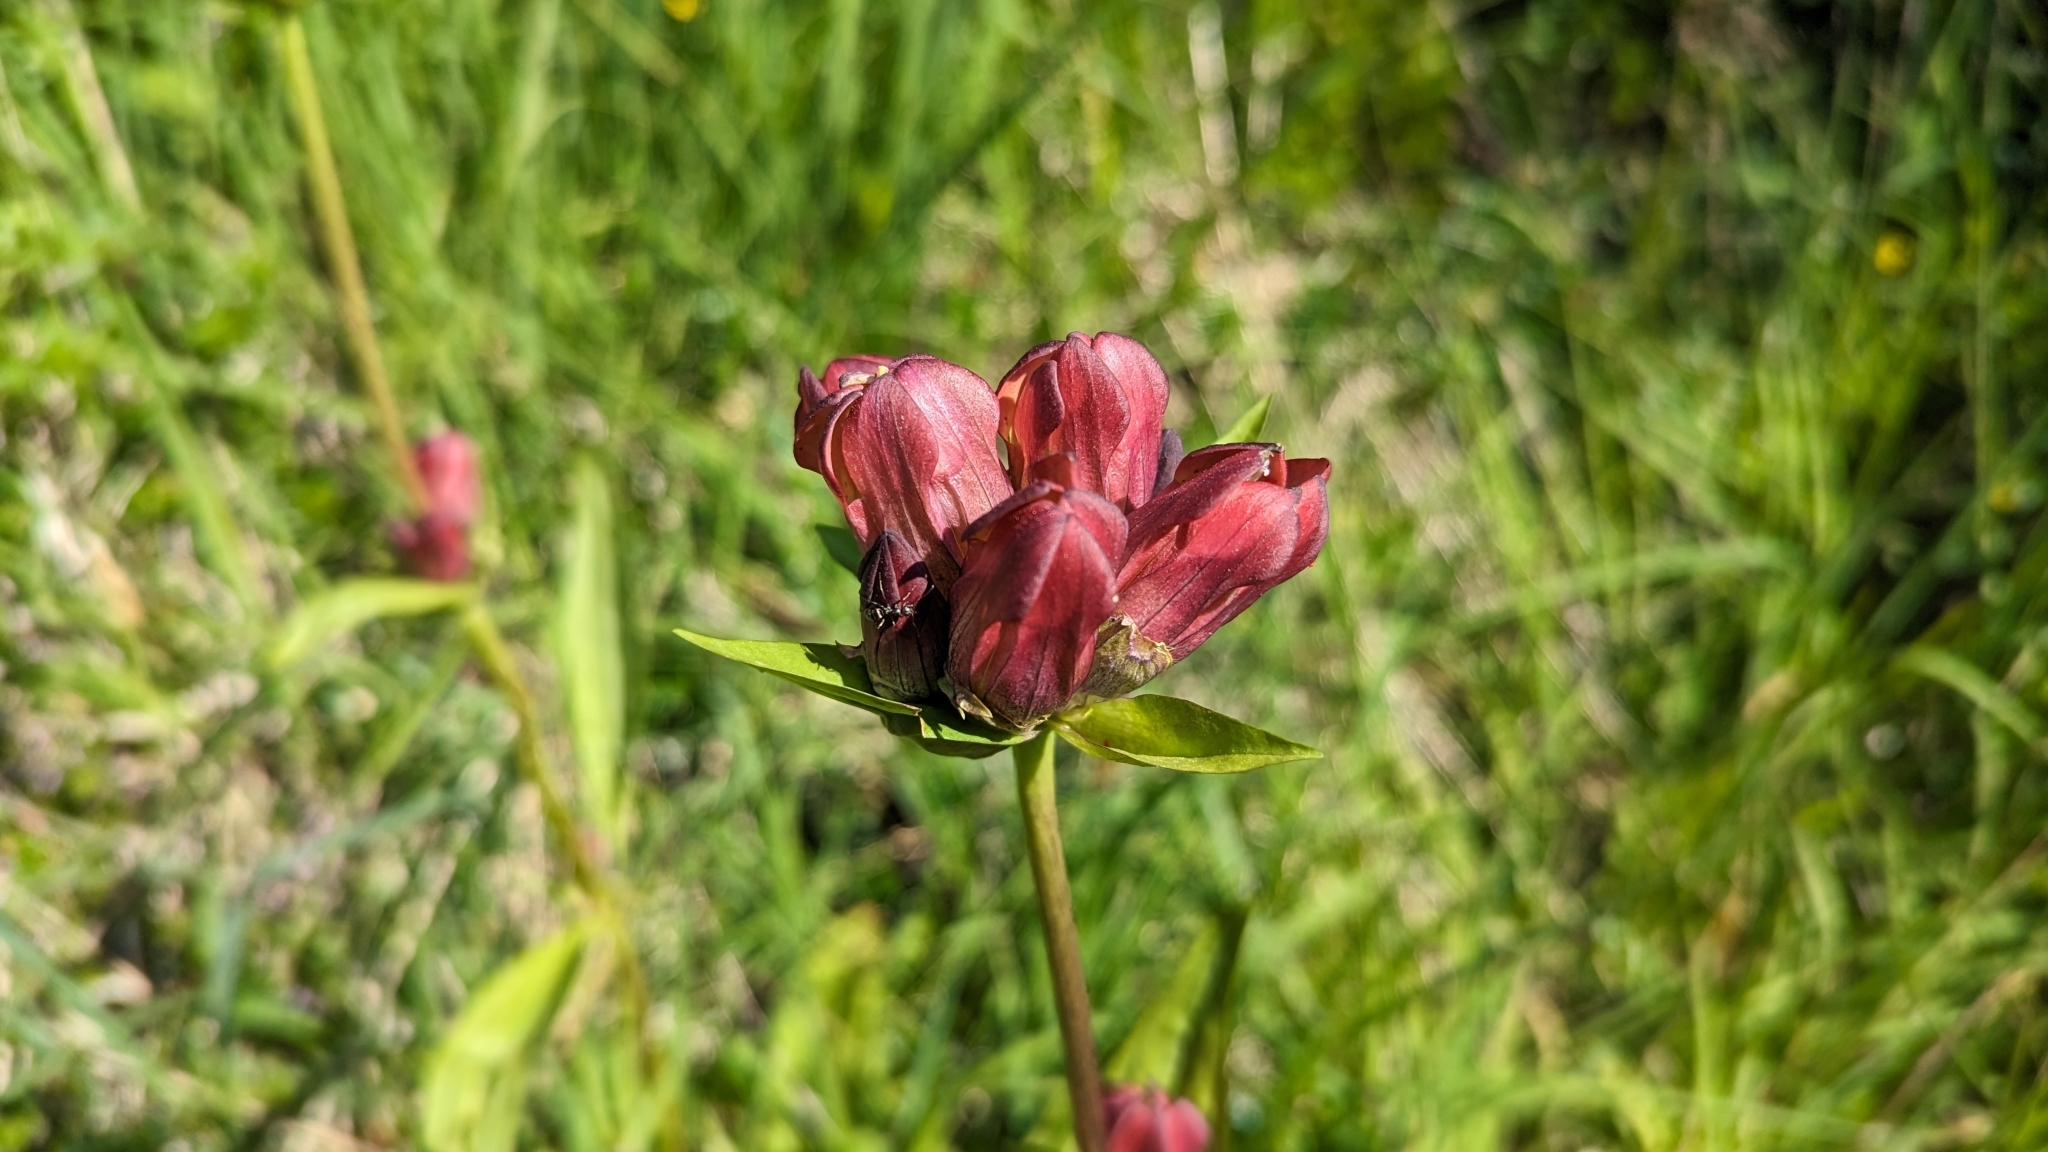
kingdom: Plantae
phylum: Tracheophyta
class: Magnoliopsida
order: Gentianales
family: Gentianaceae
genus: Gentiana
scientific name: Gentiana purpurea
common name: Purple gentian
